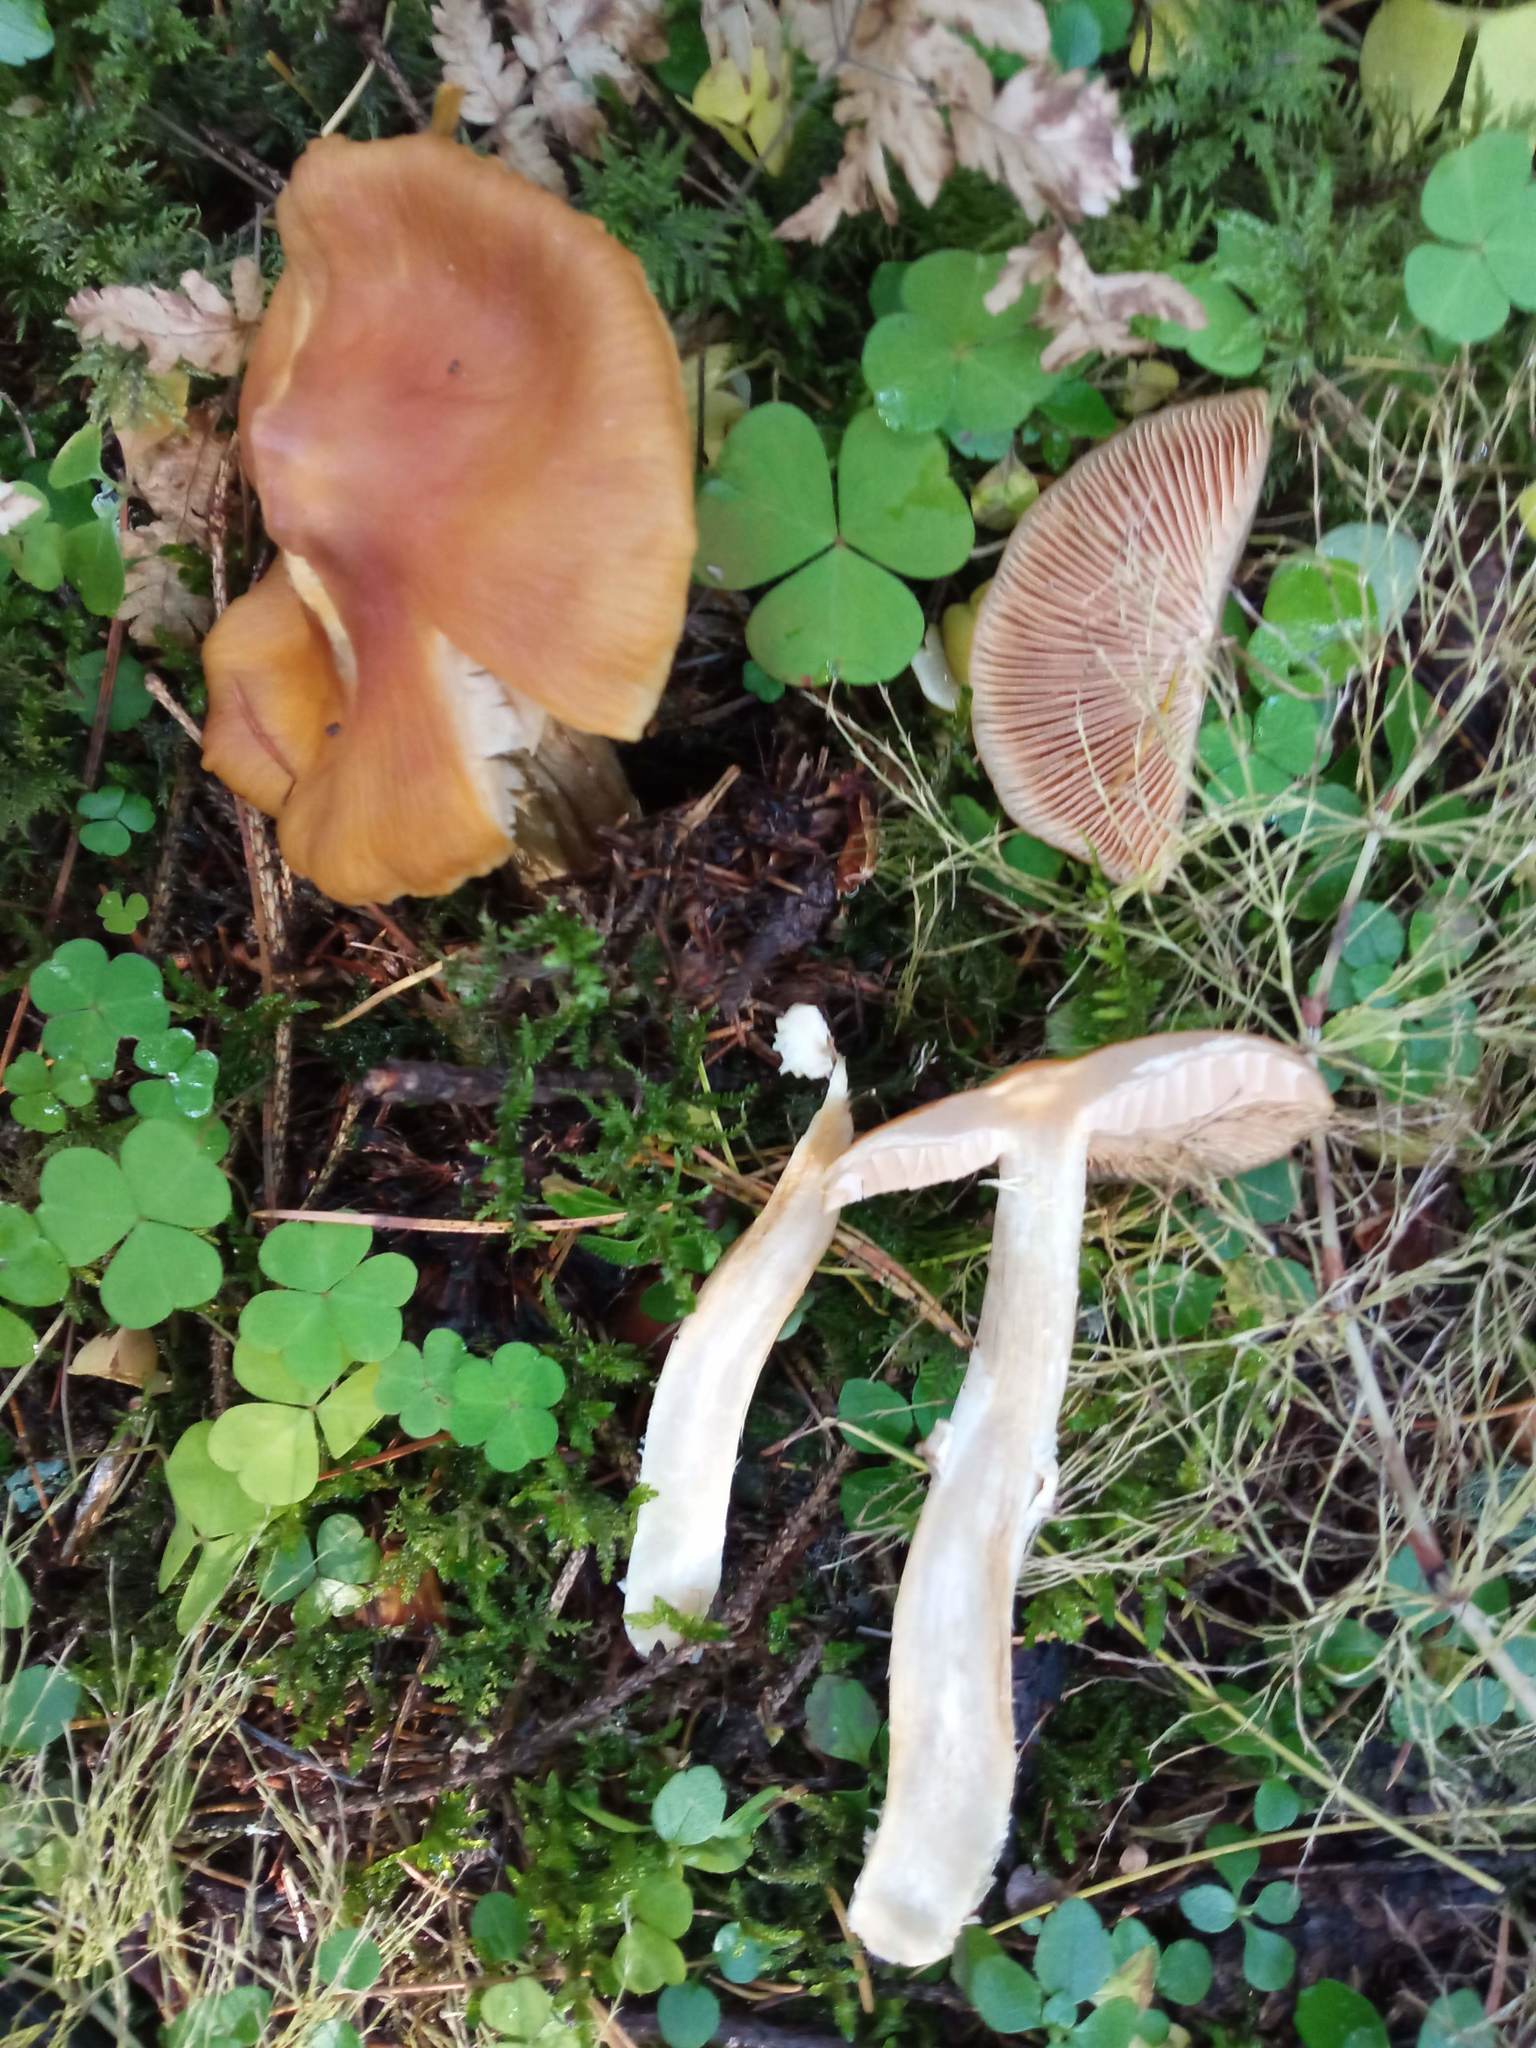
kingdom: Fungi
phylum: Basidiomycota
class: Agaricomycetes
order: Agaricales
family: Cortinariaceae
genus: Cortinarius
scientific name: Cortinarius caperatus
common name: The gypsy
